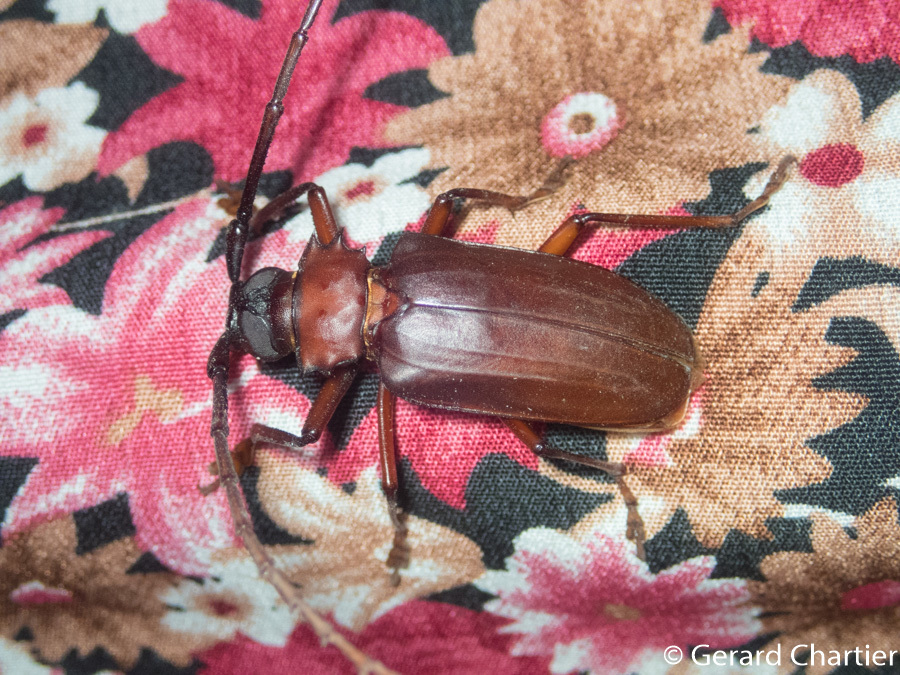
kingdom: Animalia
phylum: Arthropoda
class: Insecta
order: Coleoptera
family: Cerambycidae
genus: Dorysthenes
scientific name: Dorysthenes granulosus
